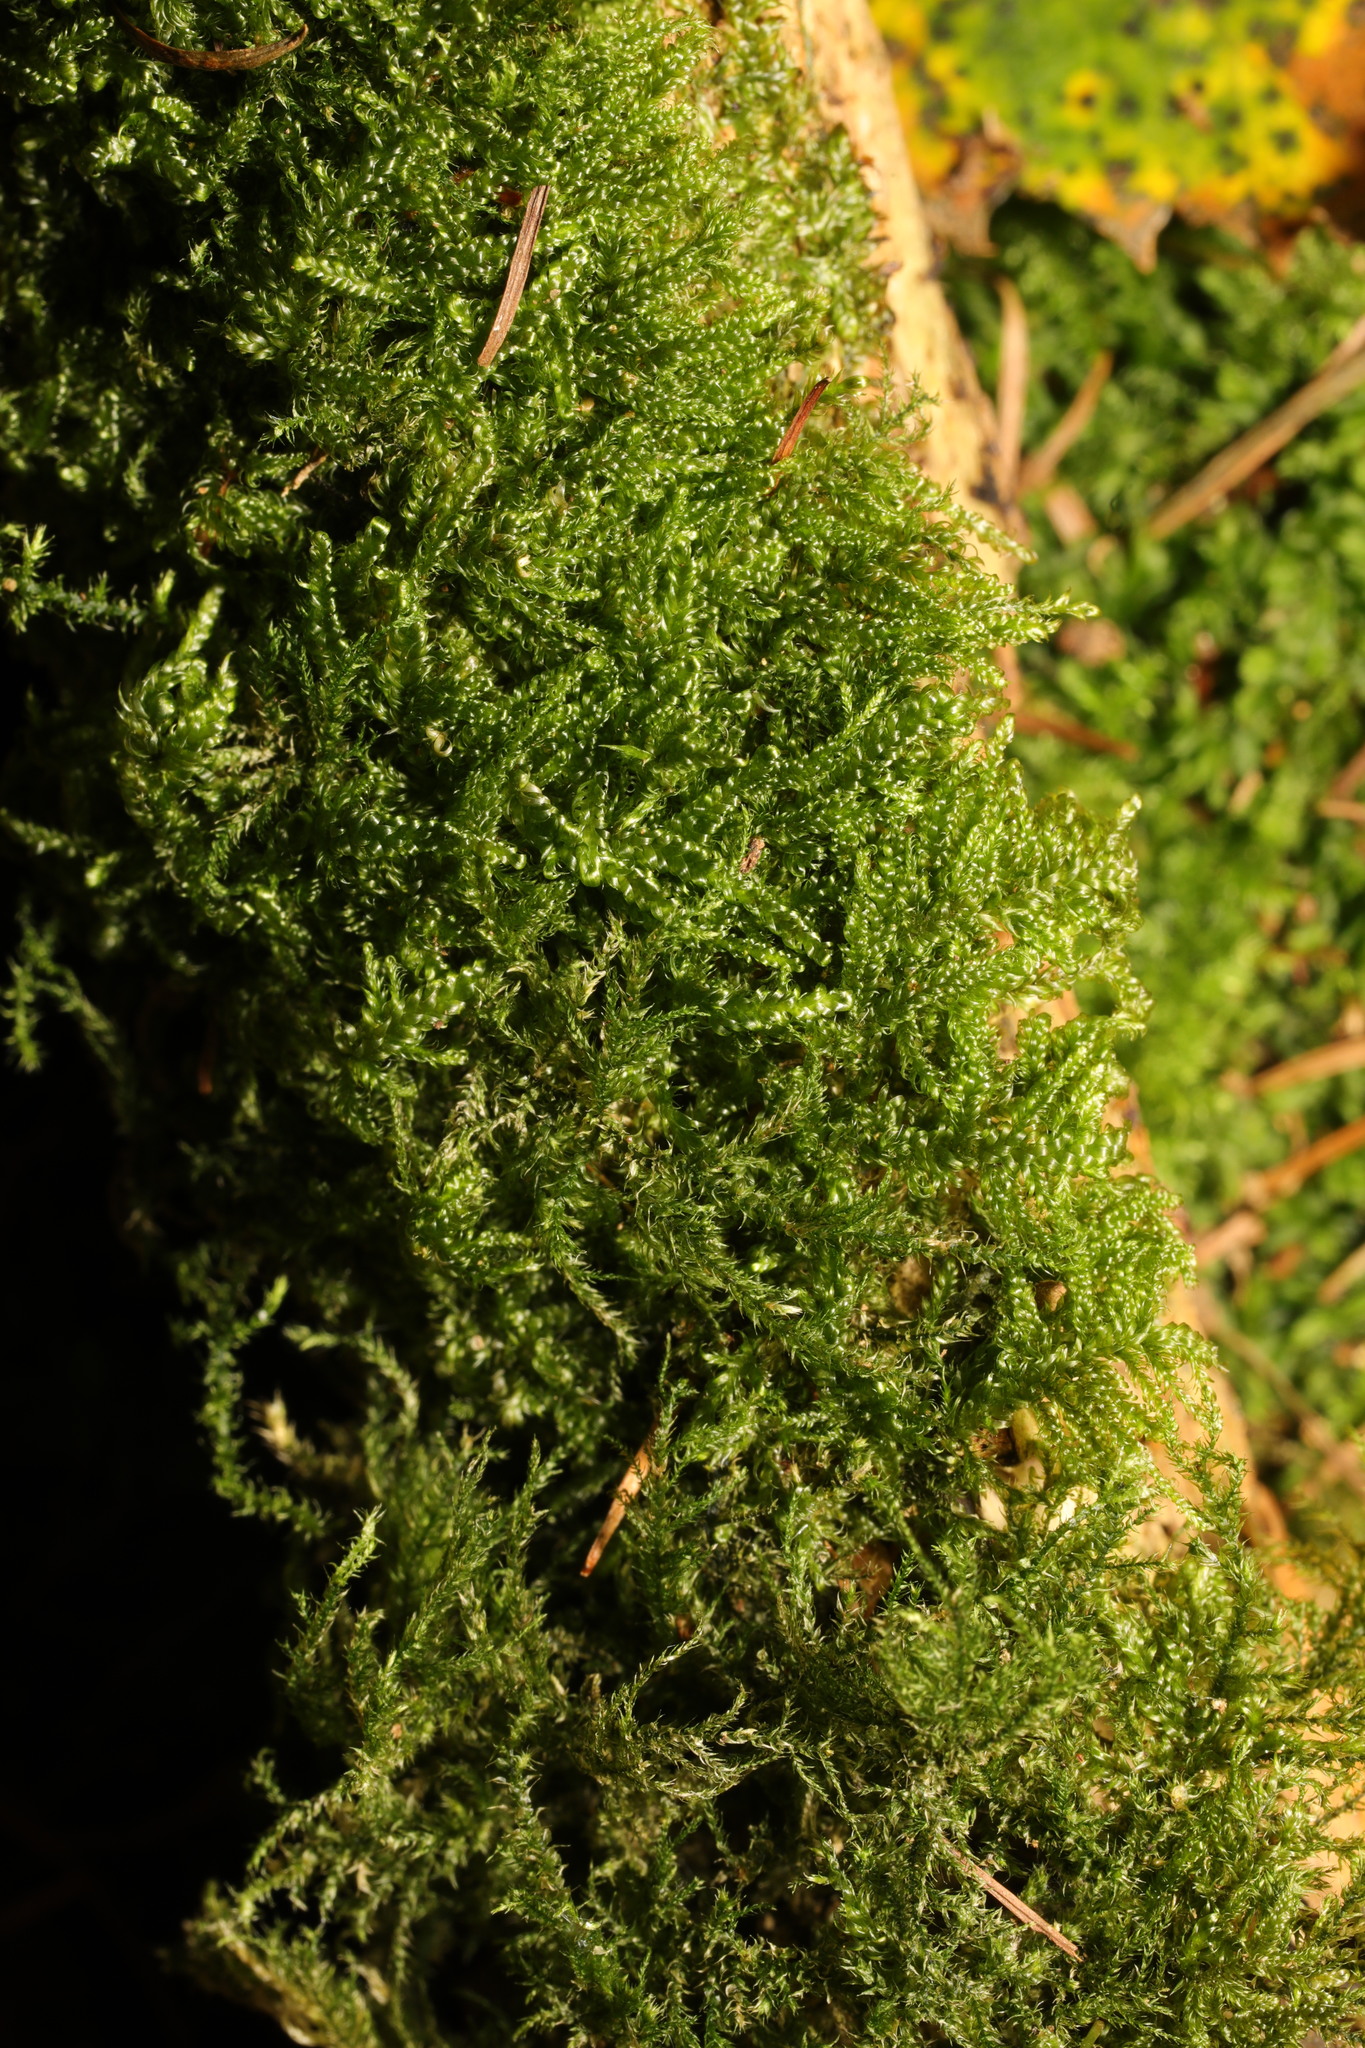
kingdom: Plantae
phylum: Bryophyta
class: Bryopsida
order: Hypnales
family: Hypnaceae
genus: Hypnum
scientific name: Hypnum cupressiforme
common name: Cypress-leaved plait-moss
